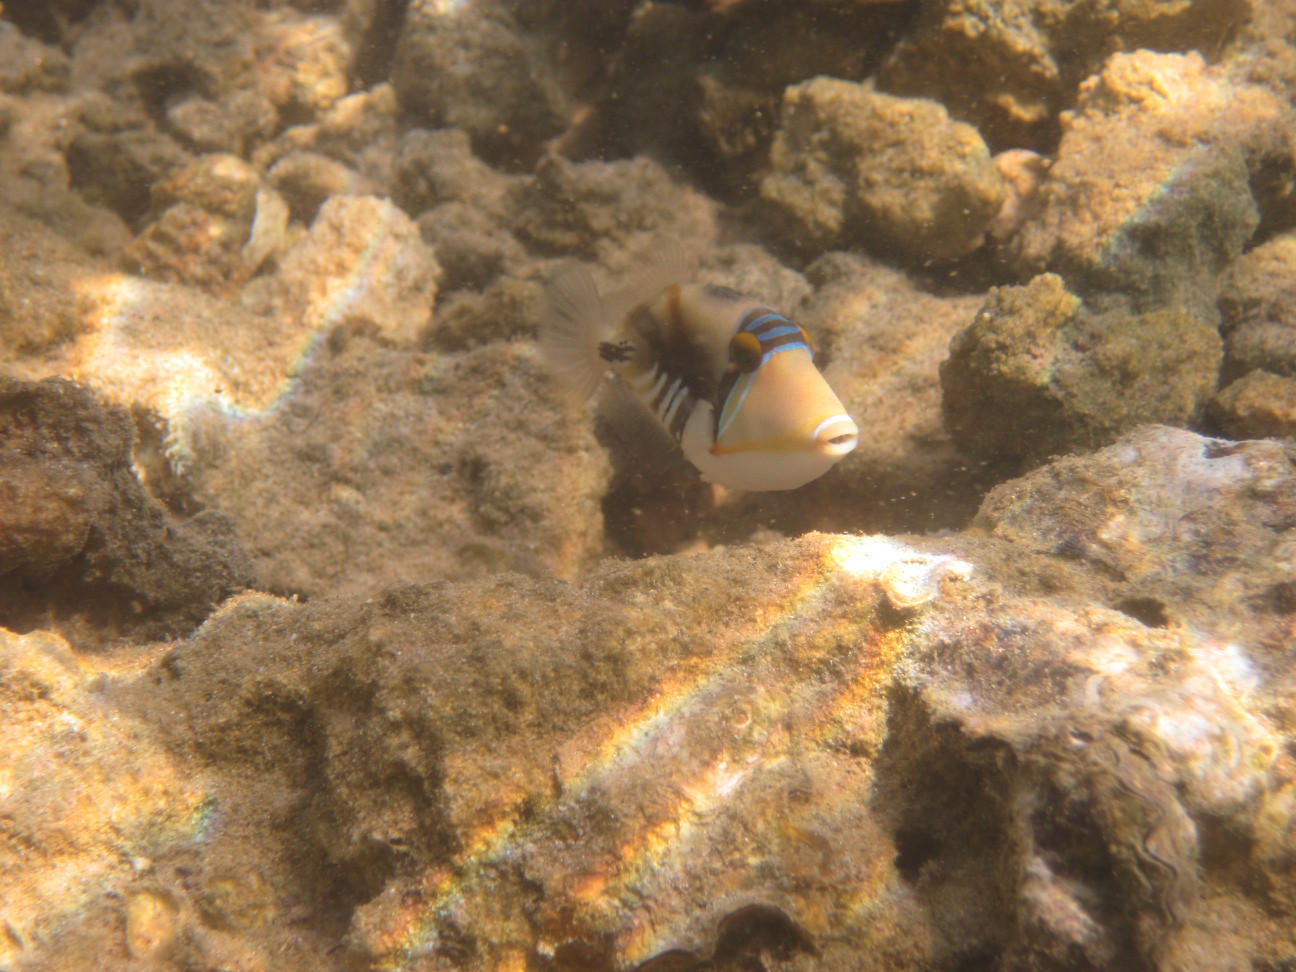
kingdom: Animalia
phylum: Chordata
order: Tetraodontiformes
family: Balistidae
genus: Rhinecanthus
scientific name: Rhinecanthus aculeatus
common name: White-banded triggerfish
